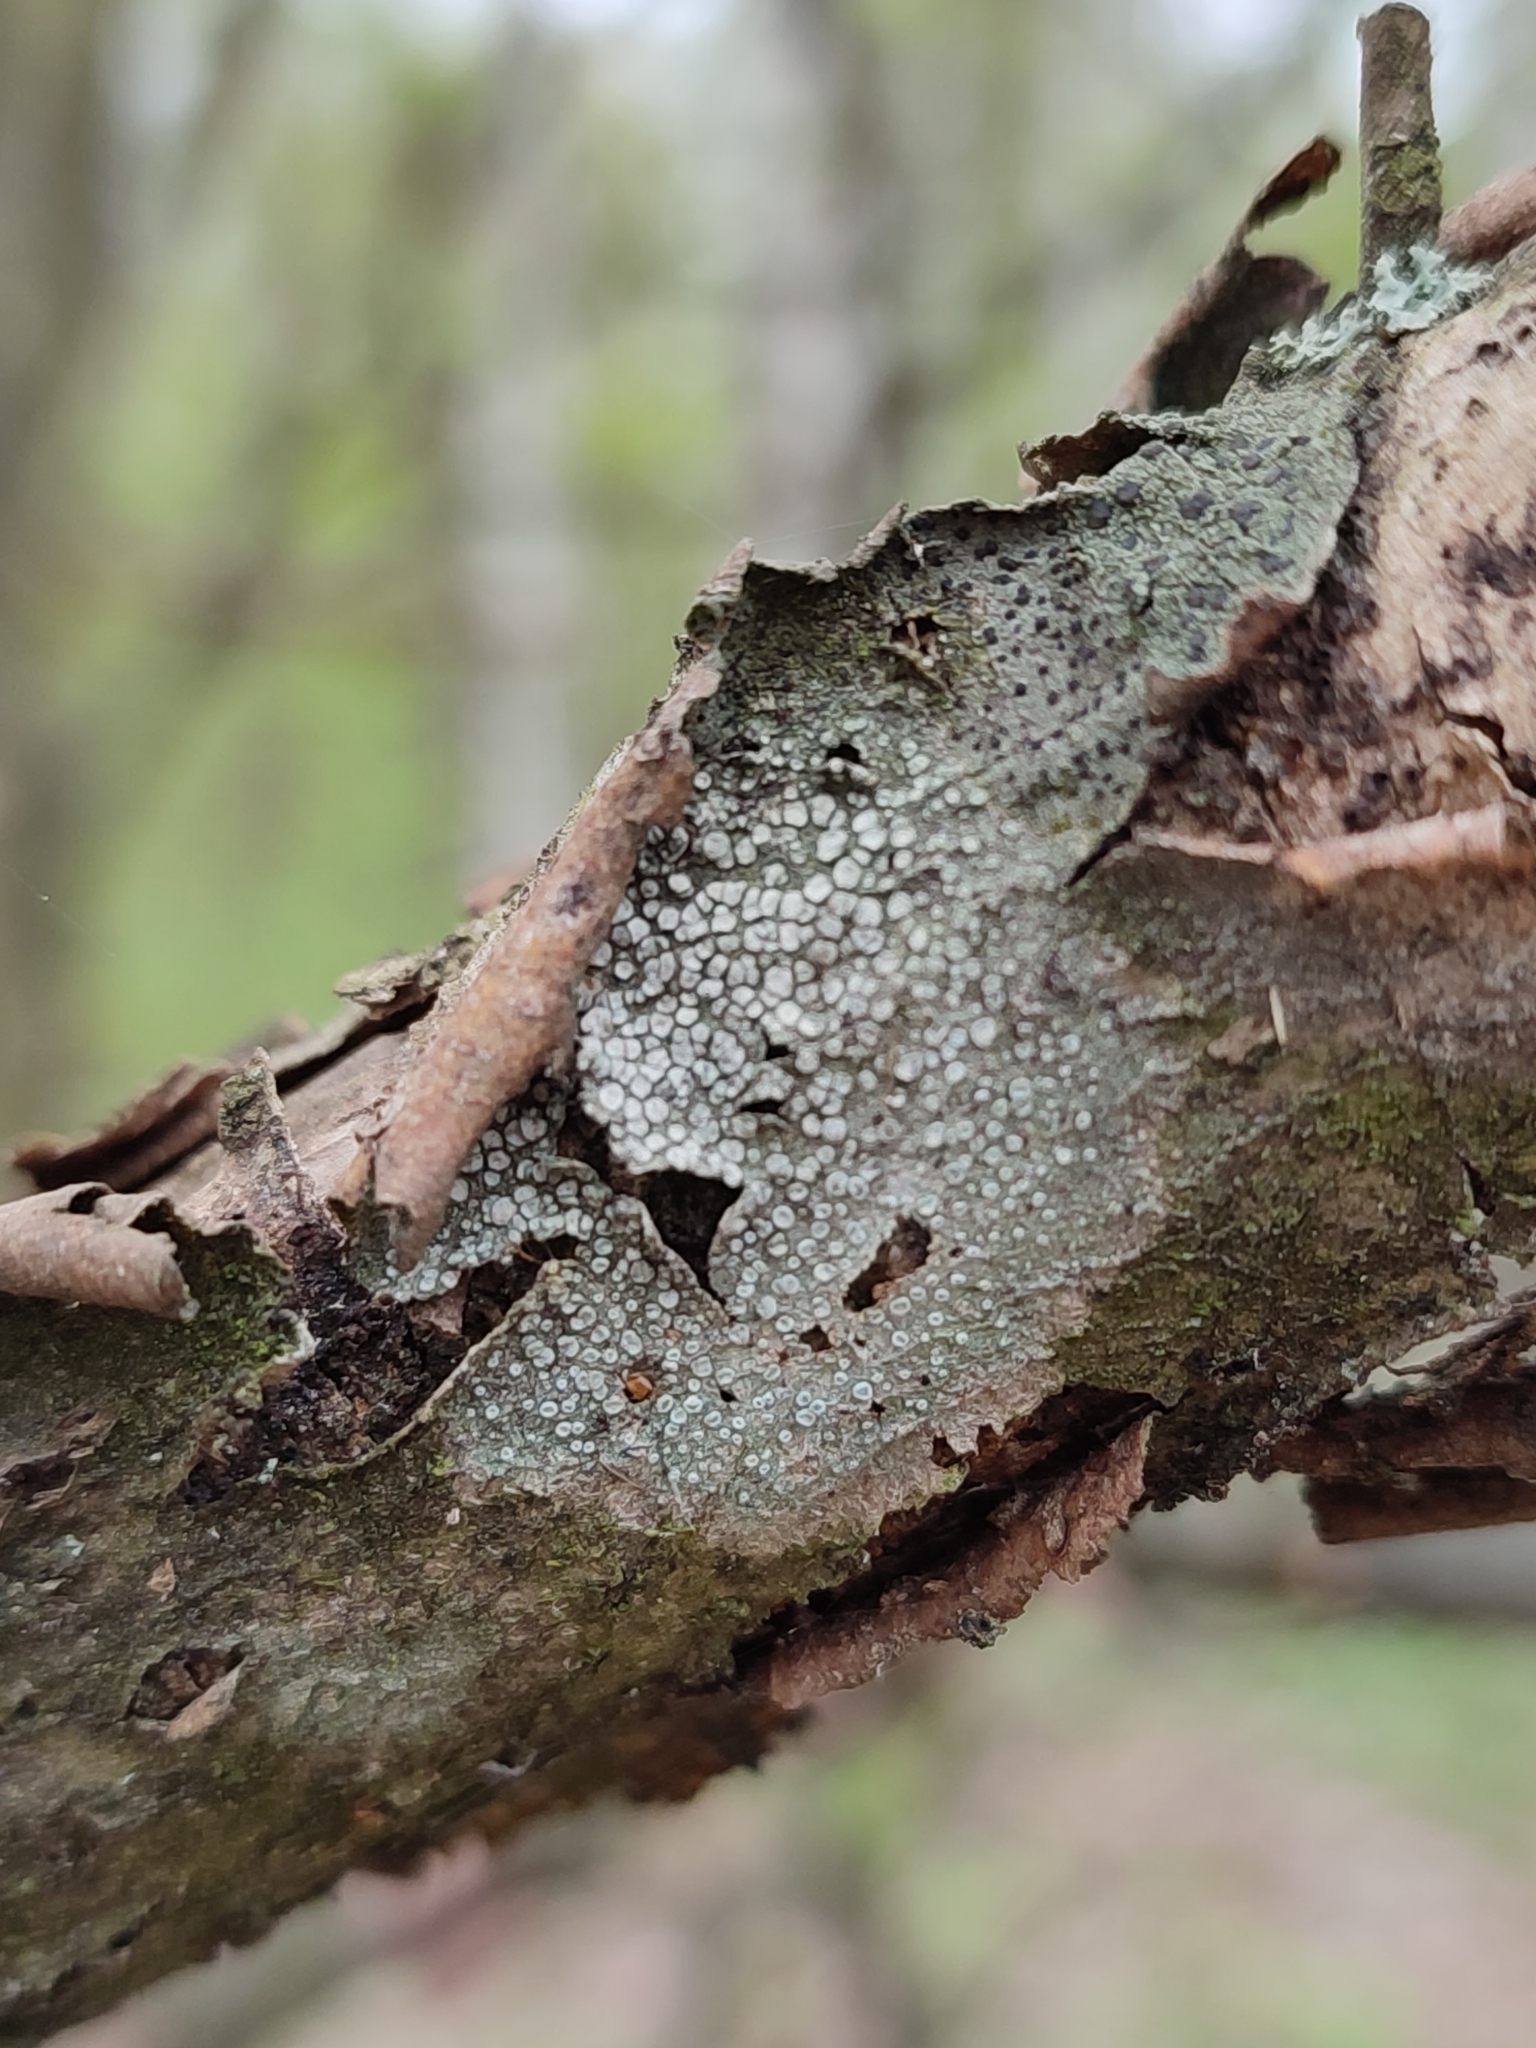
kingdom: Fungi
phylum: Ascomycota
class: Lecanoromycetes
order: Lecanorales
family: Lecanoraceae
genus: Glaucomaria
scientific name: Glaucomaria carpinea
